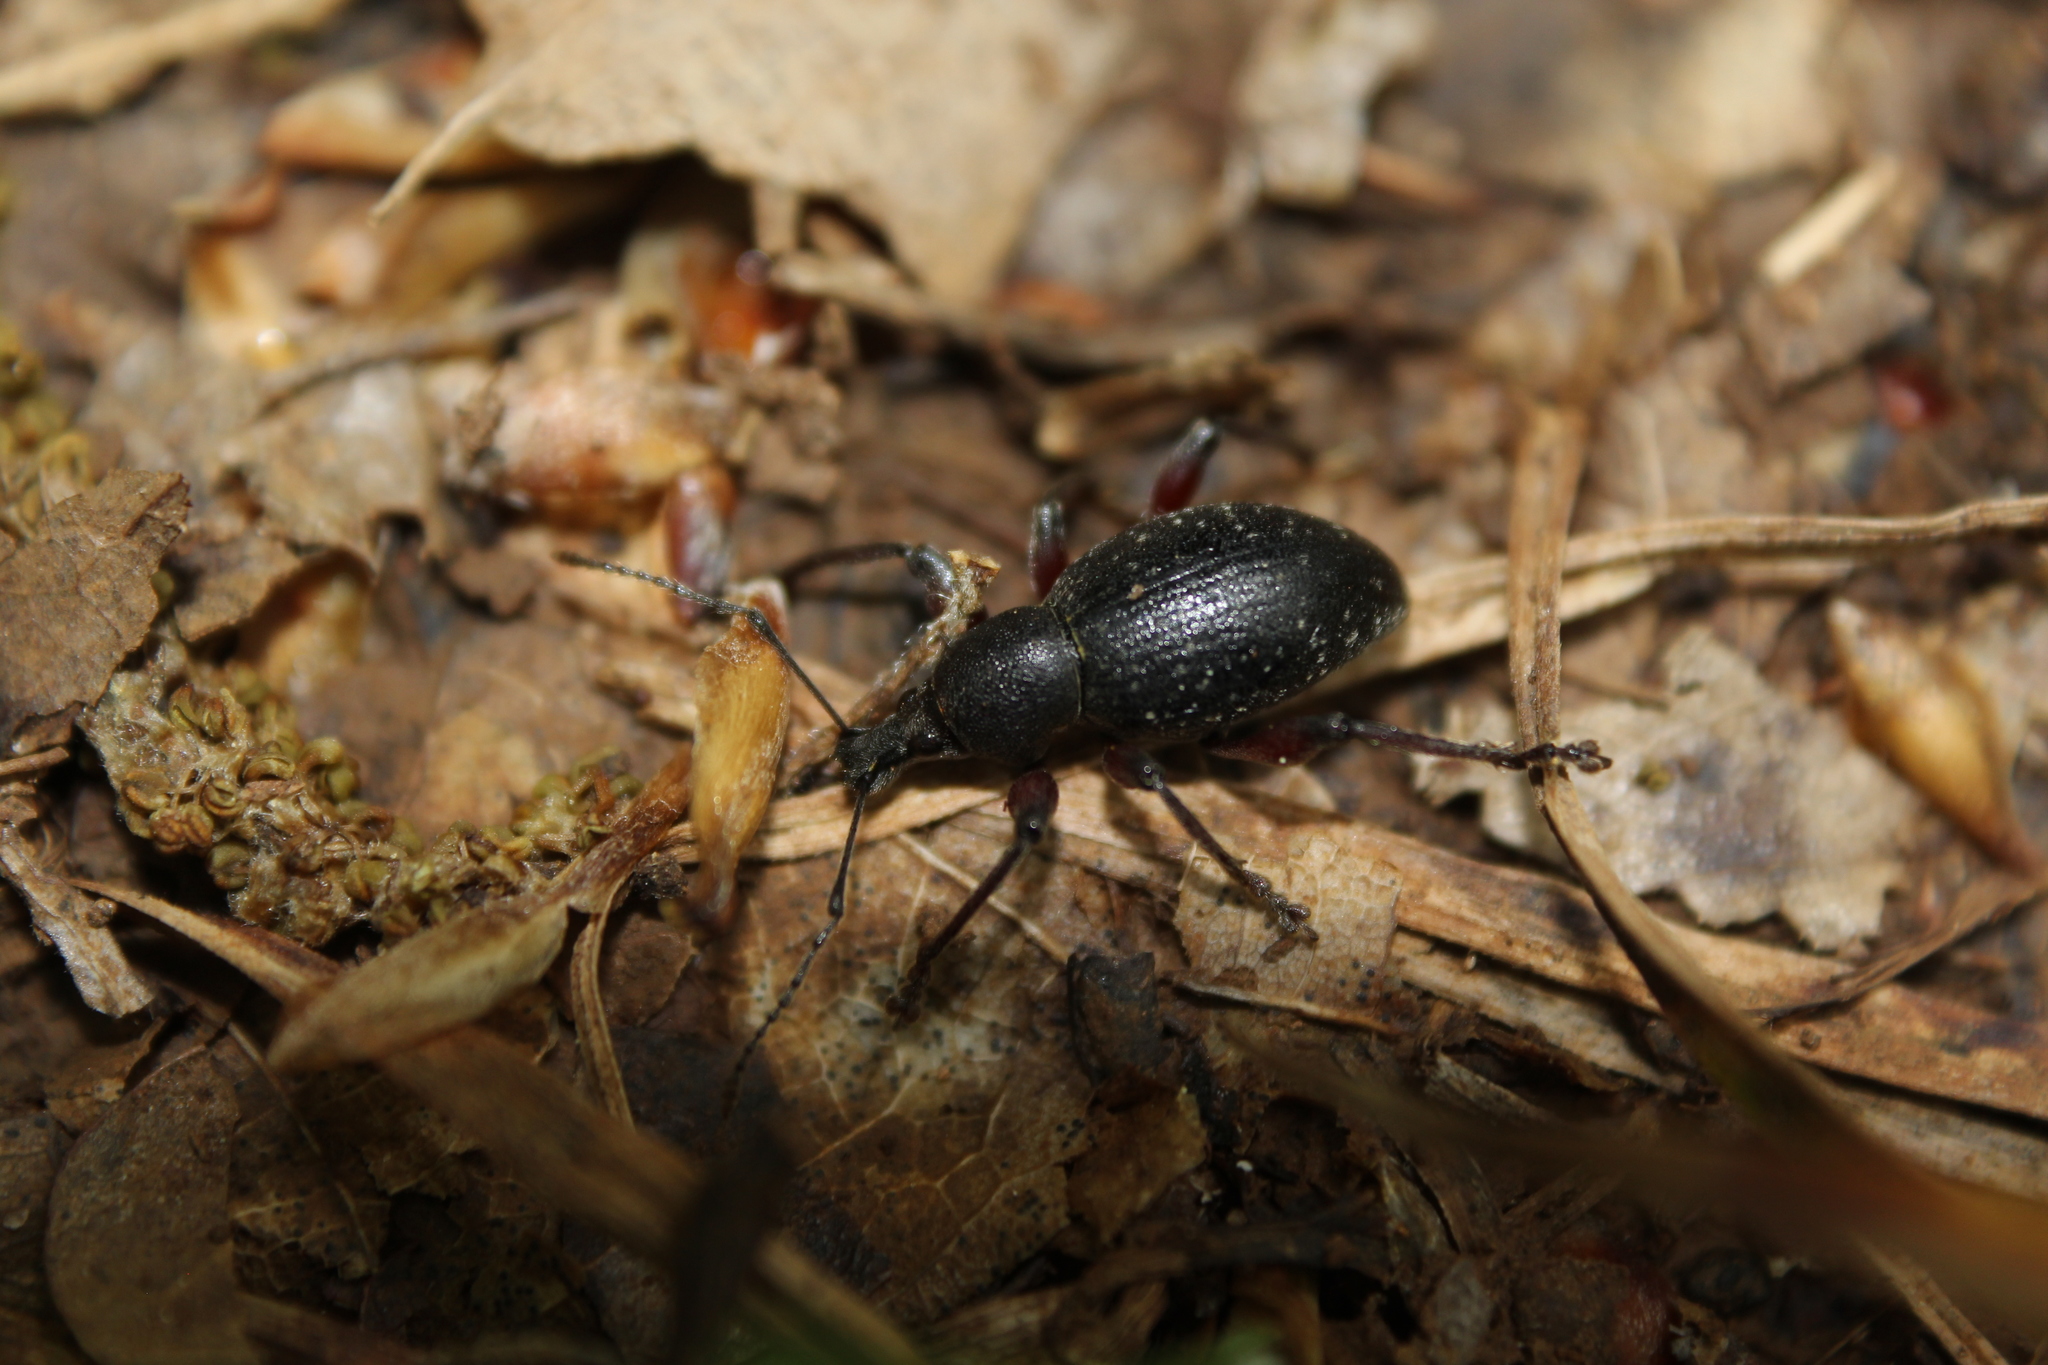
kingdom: Animalia
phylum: Arthropoda
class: Insecta
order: Coleoptera
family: Curculionidae
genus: Otiorhynchus
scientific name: Otiorhynchus clavipes
